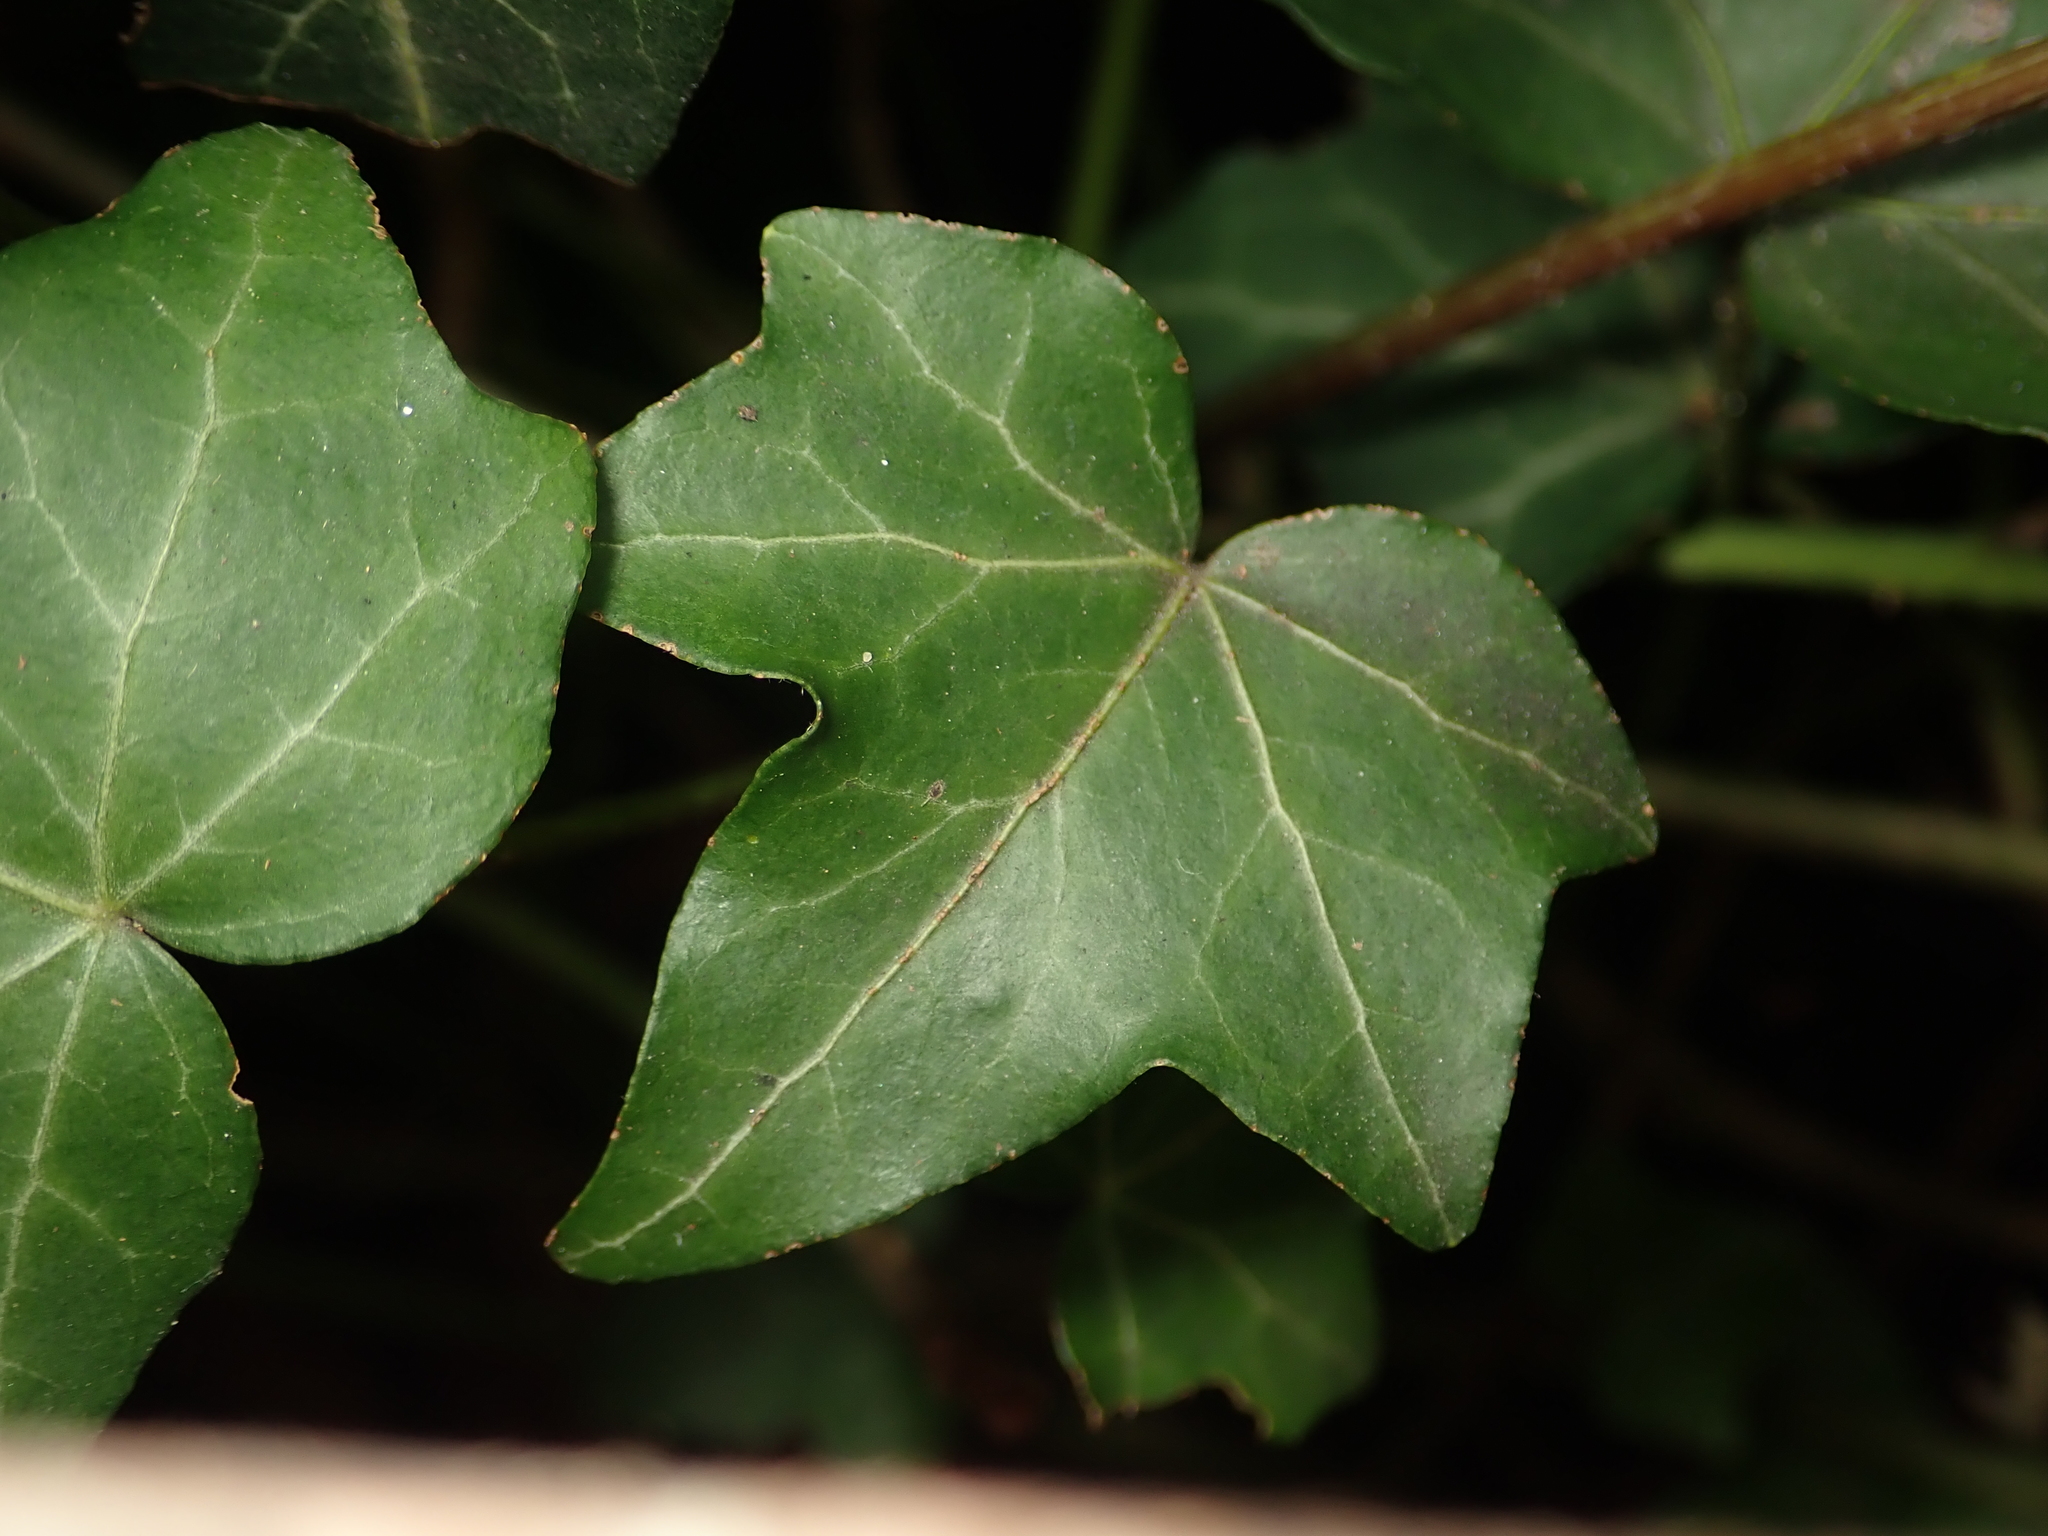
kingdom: Plantae
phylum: Tracheophyta
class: Magnoliopsida
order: Apiales
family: Araliaceae
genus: Hedera
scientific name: Hedera helix
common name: Ivy
